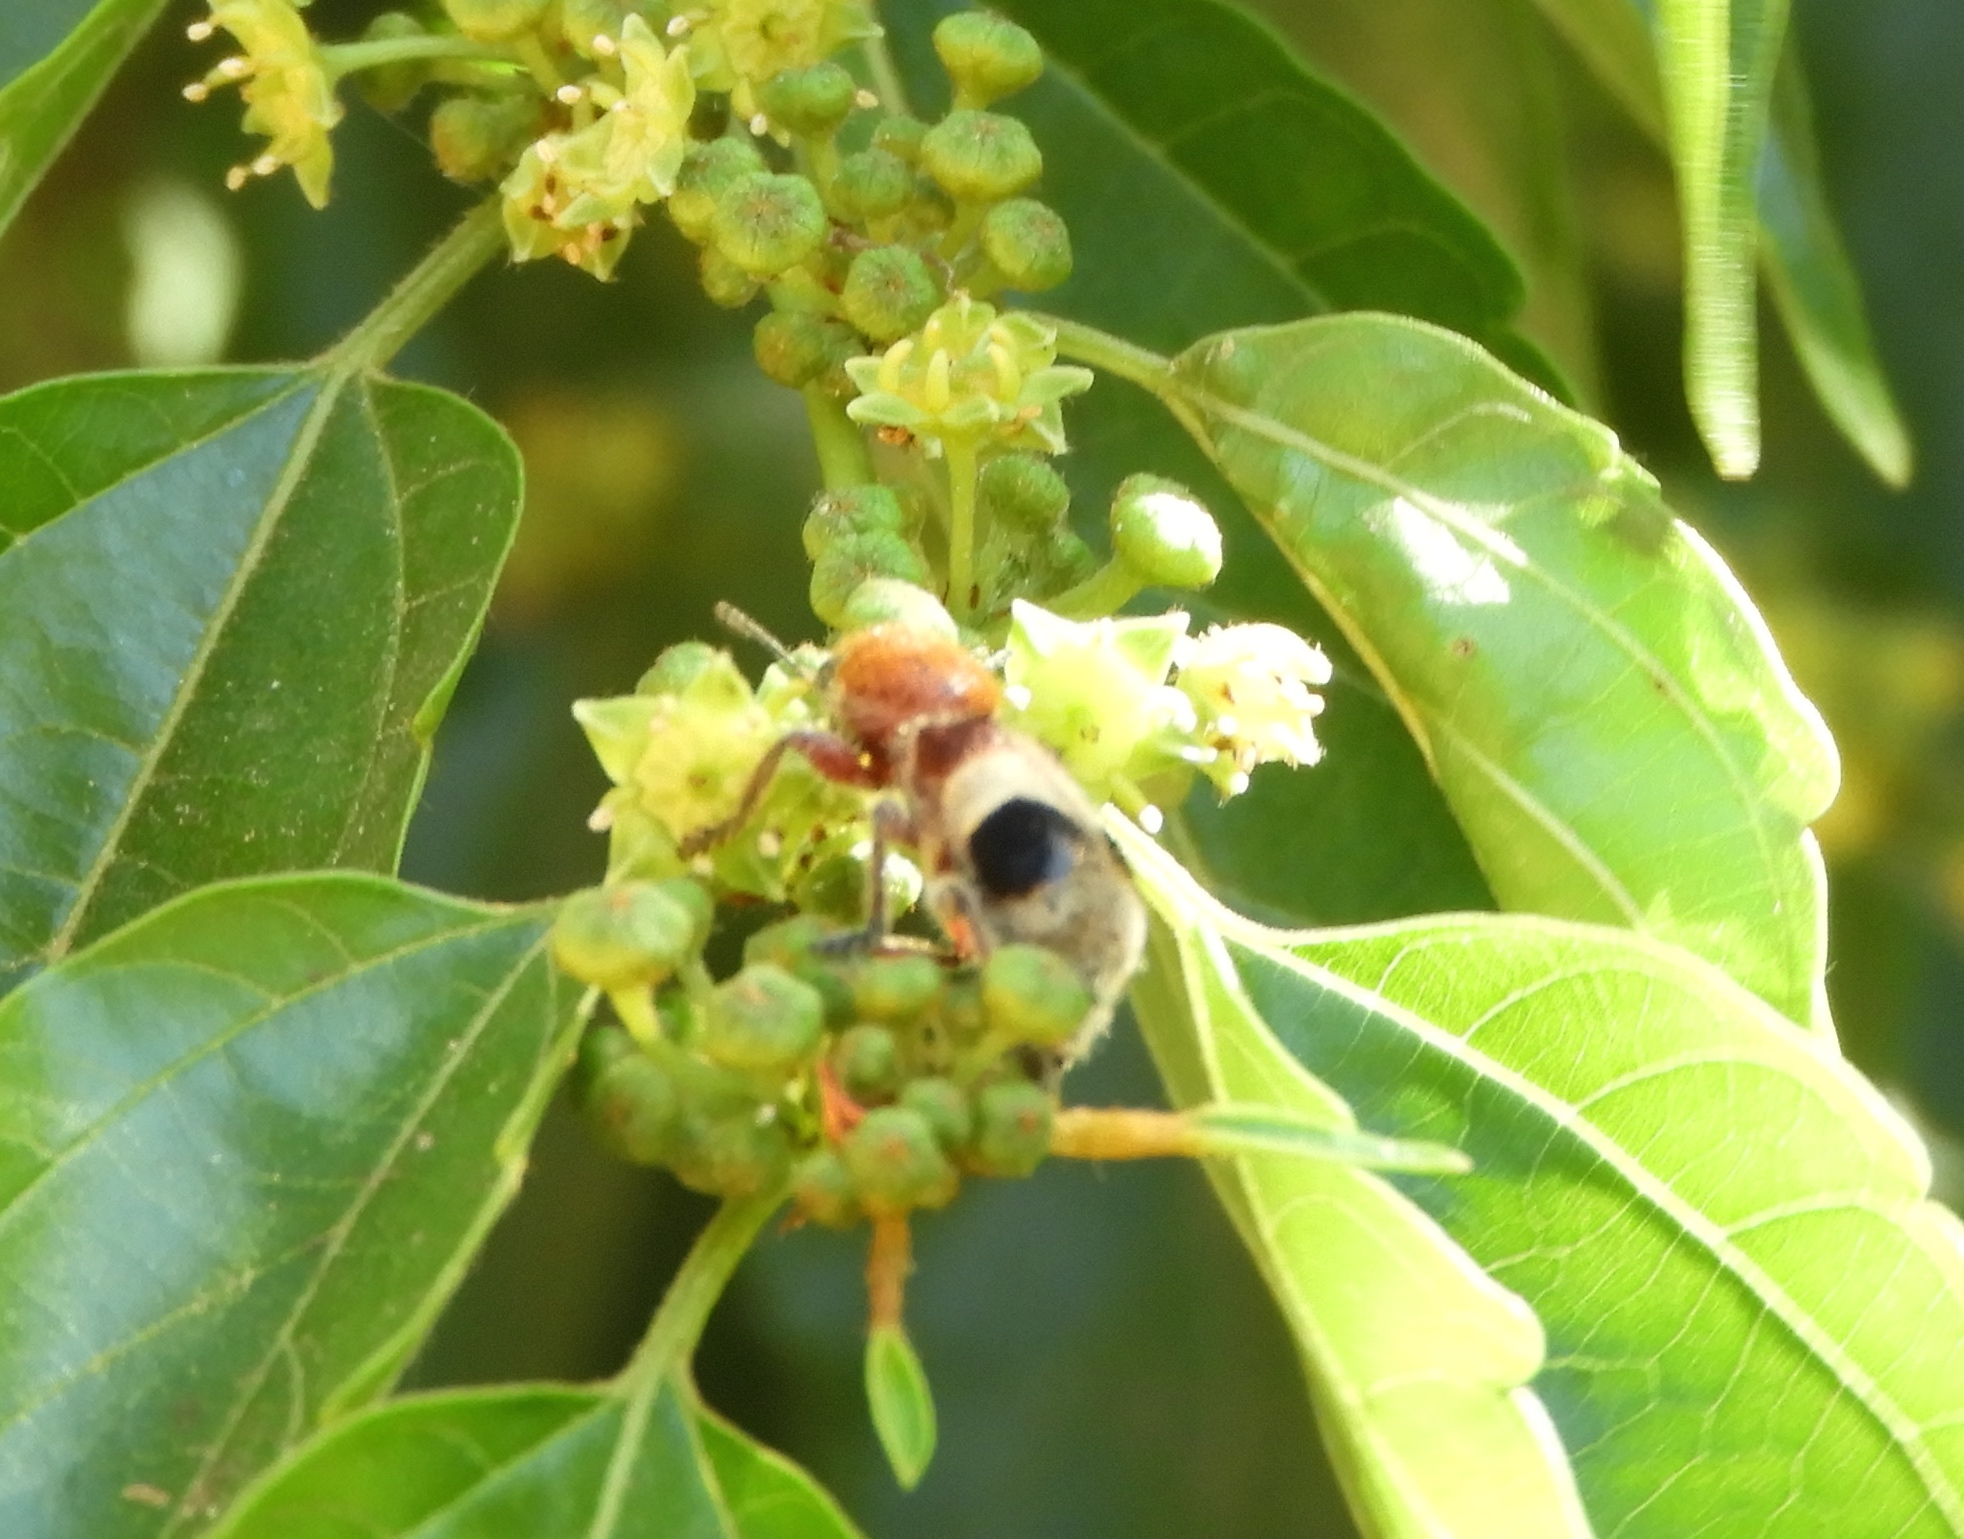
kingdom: Animalia
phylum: Arthropoda
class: Insecta
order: Coleoptera
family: Cleridae
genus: Enoclerus
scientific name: Enoclerus quadriguttatus
